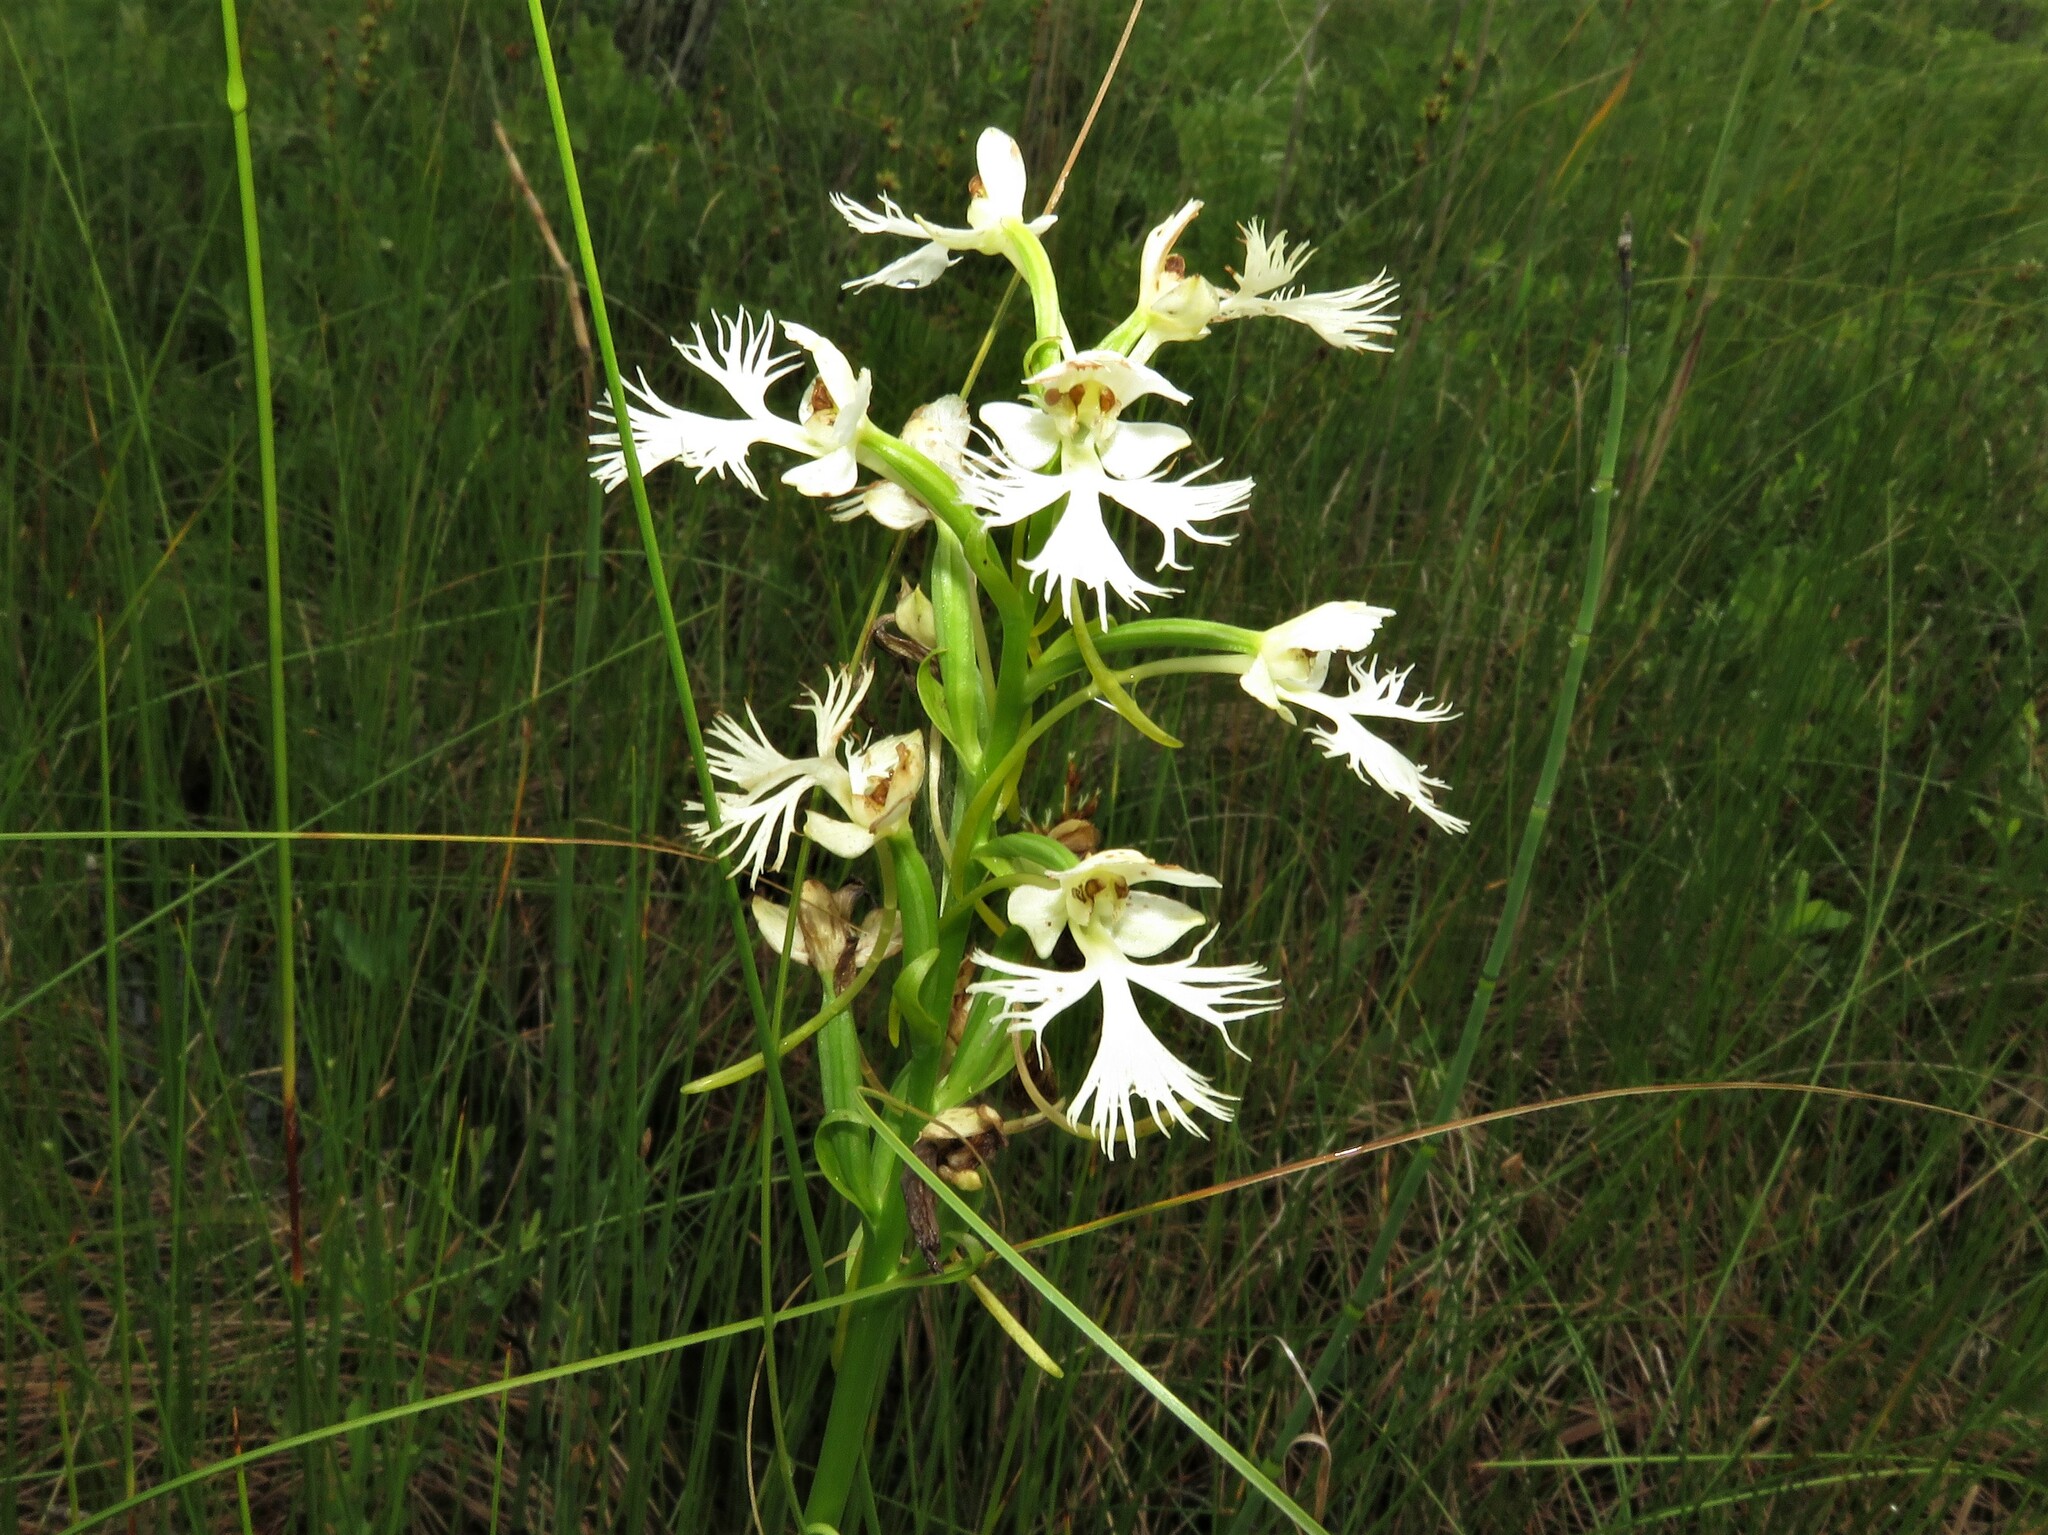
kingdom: Plantae
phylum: Tracheophyta
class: Liliopsida
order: Asparagales
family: Orchidaceae
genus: Platanthera
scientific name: Platanthera leucophaea
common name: Eastern prairie white-fringed orchid
